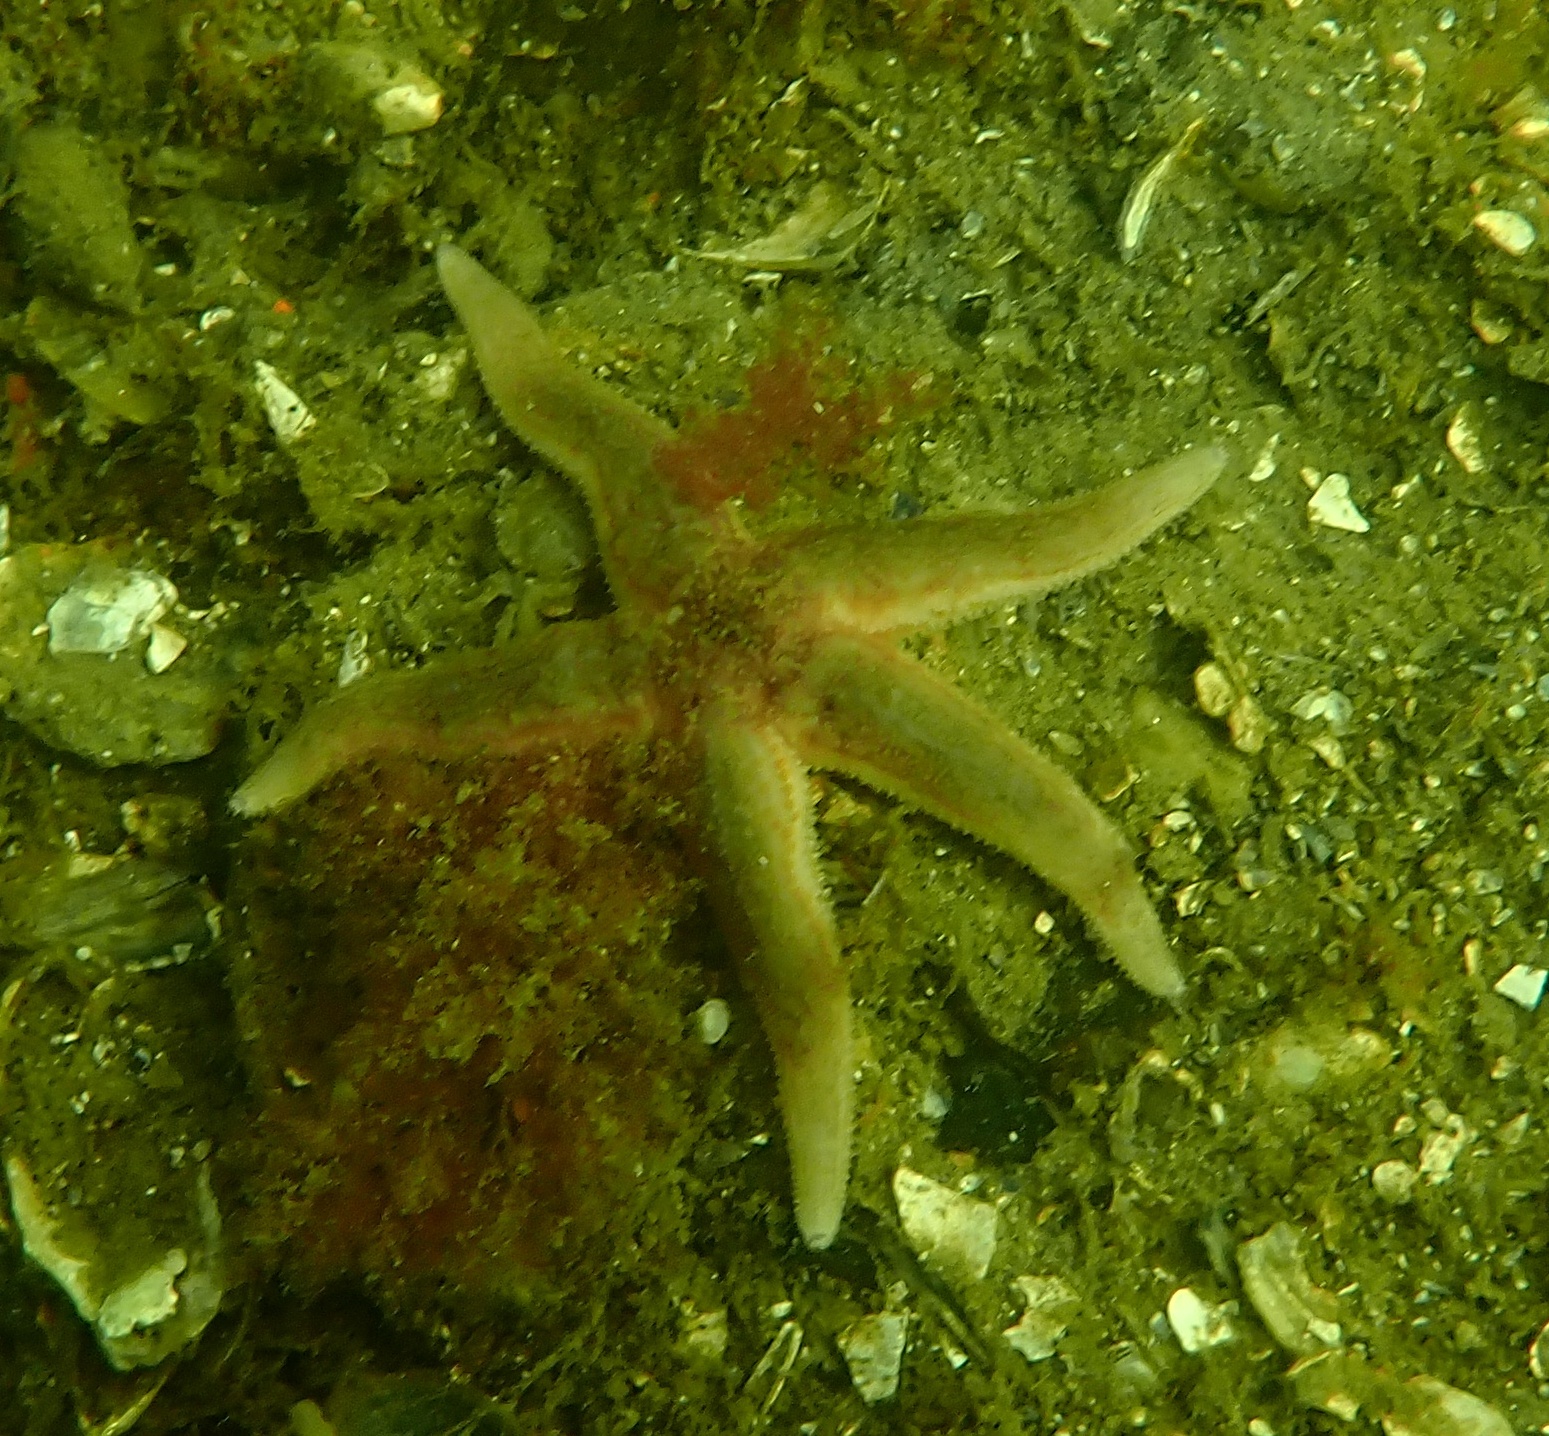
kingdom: Animalia
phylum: Echinodermata
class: Asteroidea
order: Forcipulatida
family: Asteriidae
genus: Asterias
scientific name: Asterias rubens
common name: Common starfish
